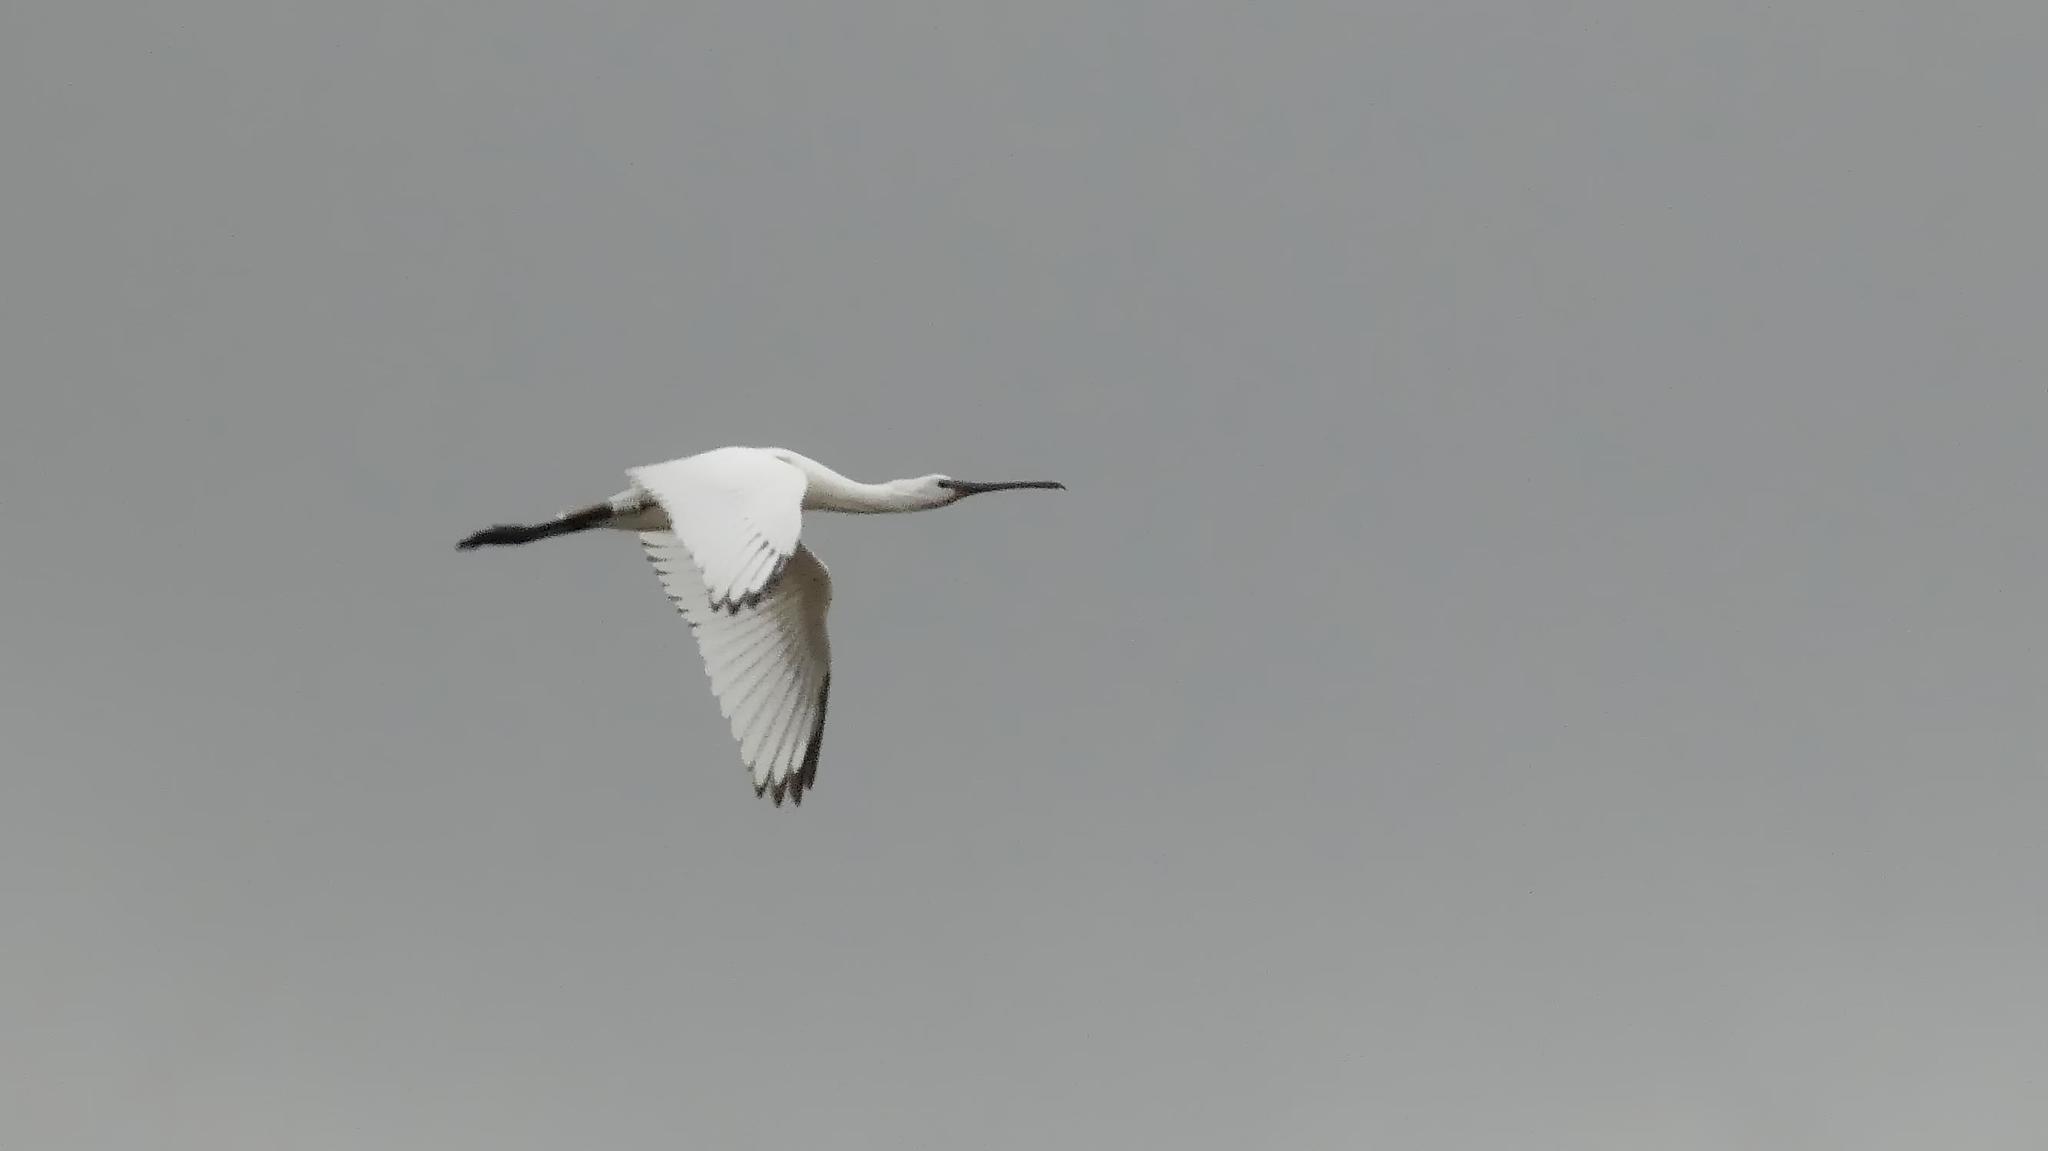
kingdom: Animalia
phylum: Chordata
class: Aves
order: Pelecaniformes
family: Threskiornithidae
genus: Platalea
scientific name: Platalea leucorodia
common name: Eurasian spoonbill
